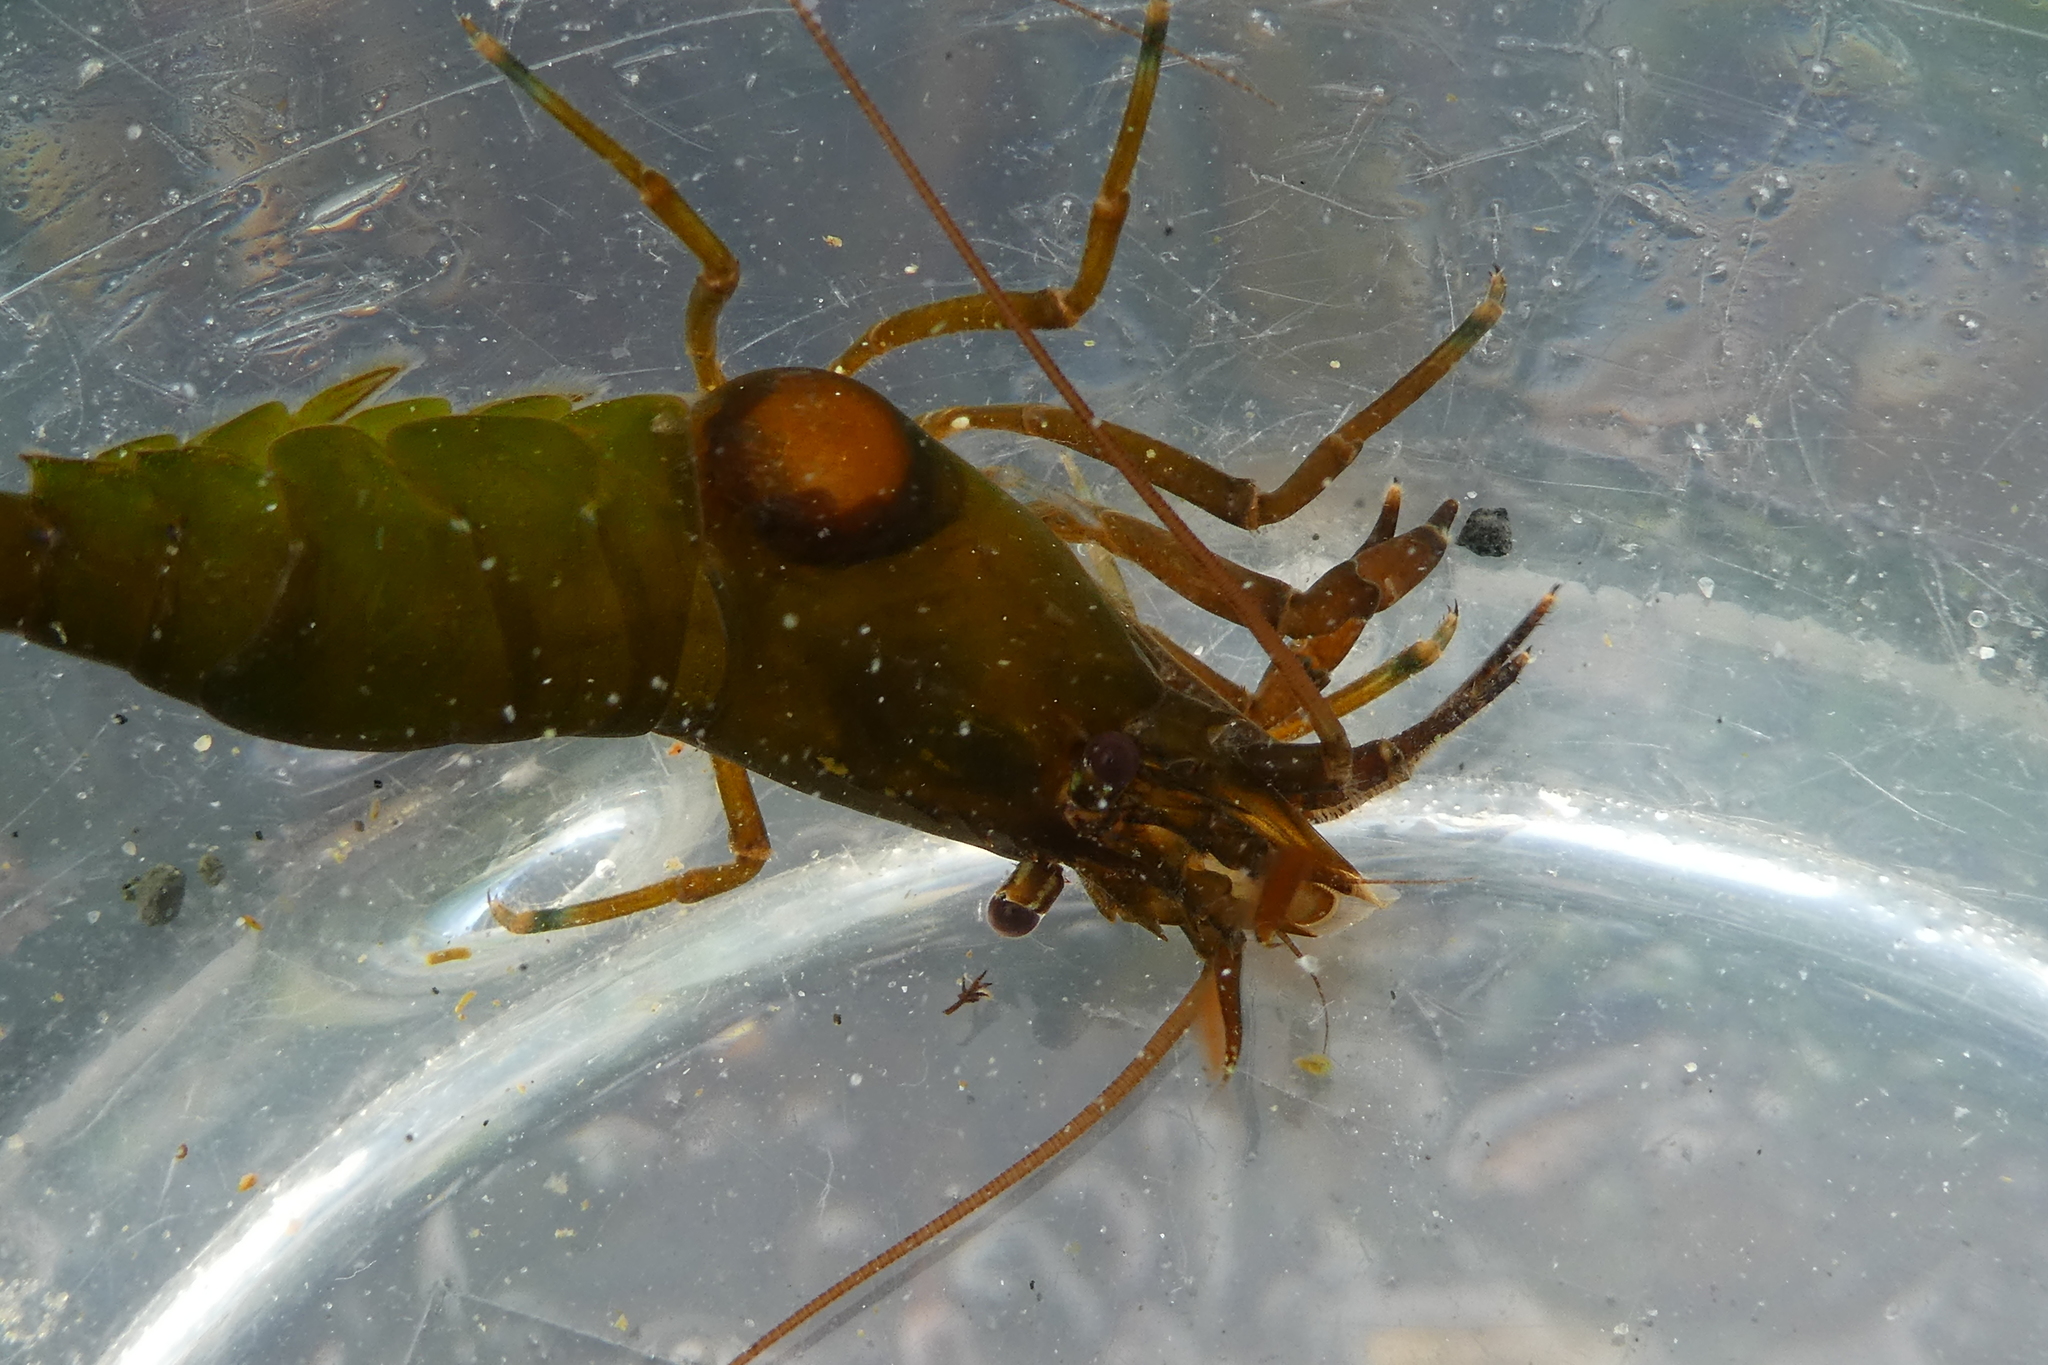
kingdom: Animalia
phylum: Arthropoda
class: Malacostraca
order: Decapoda
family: Thoridae
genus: Heptacarpus
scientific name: Heptacarpus brevirostris
